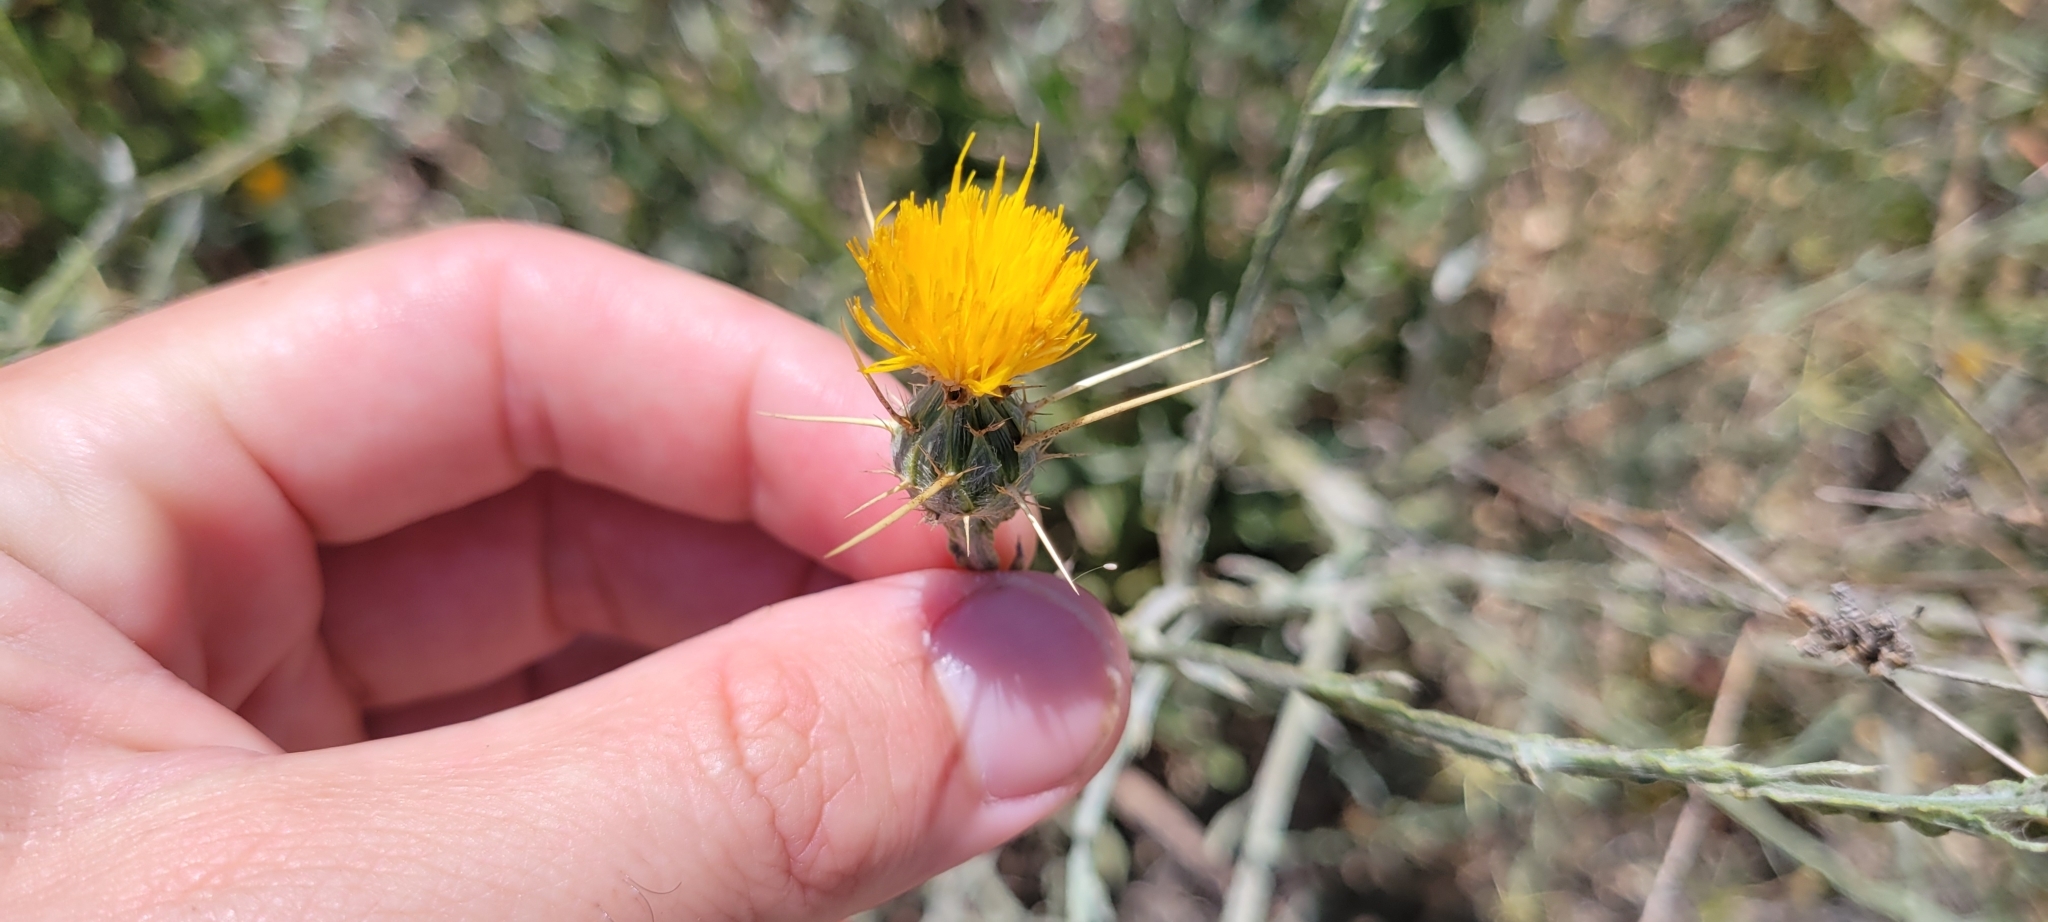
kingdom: Plantae
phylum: Tracheophyta
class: Magnoliopsida
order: Asterales
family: Asteraceae
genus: Centaurea
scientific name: Centaurea solstitialis
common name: Yellow star-thistle
